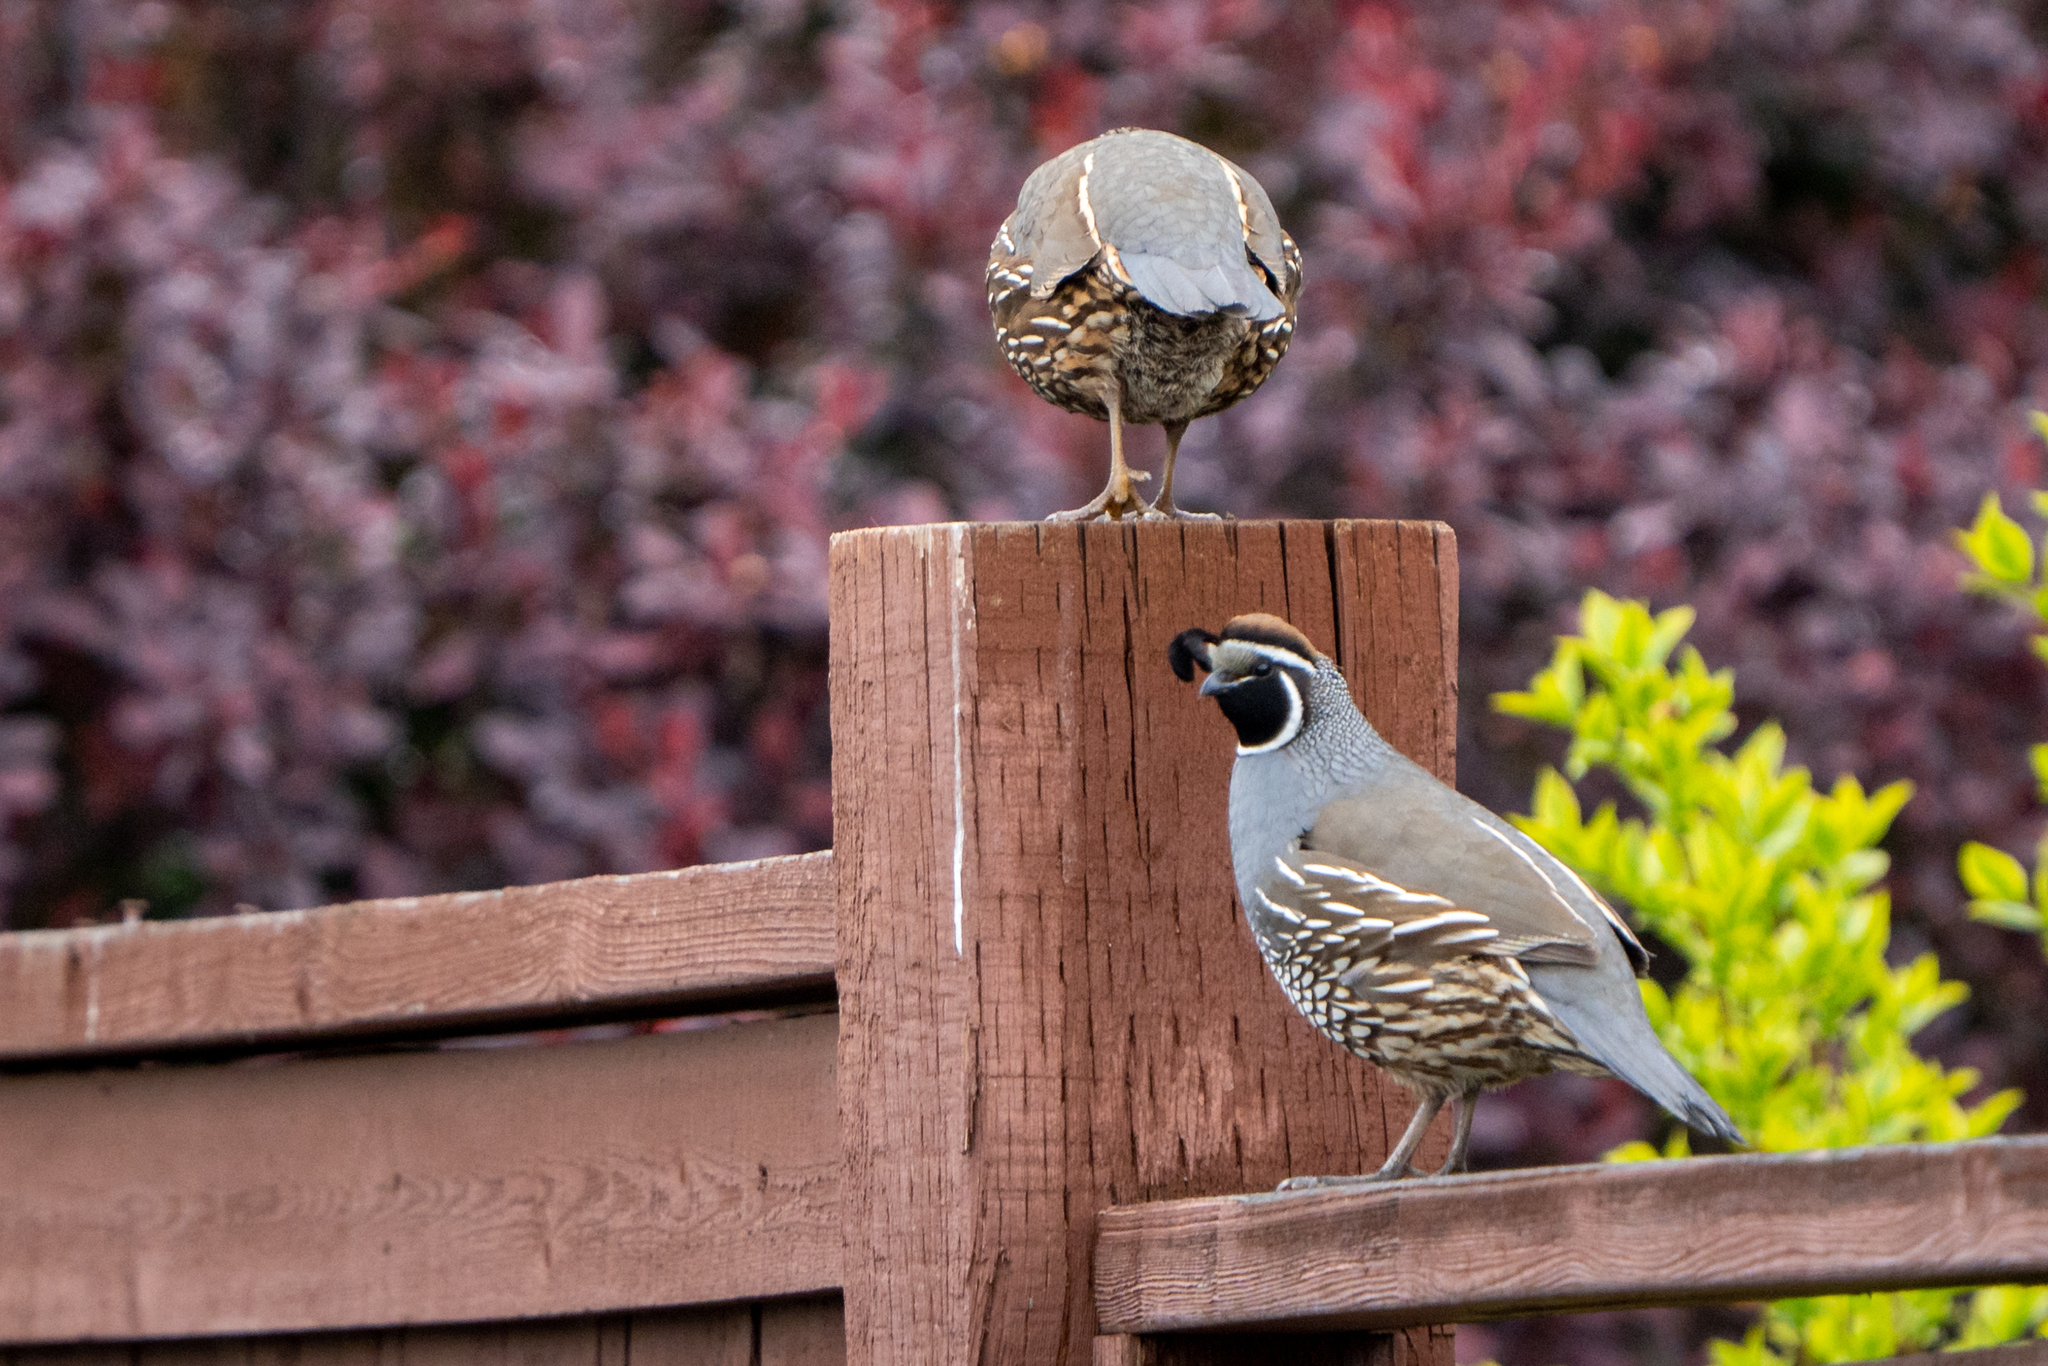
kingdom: Animalia
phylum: Chordata
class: Aves
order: Galliformes
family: Odontophoridae
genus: Callipepla
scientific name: Callipepla californica
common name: California quail
